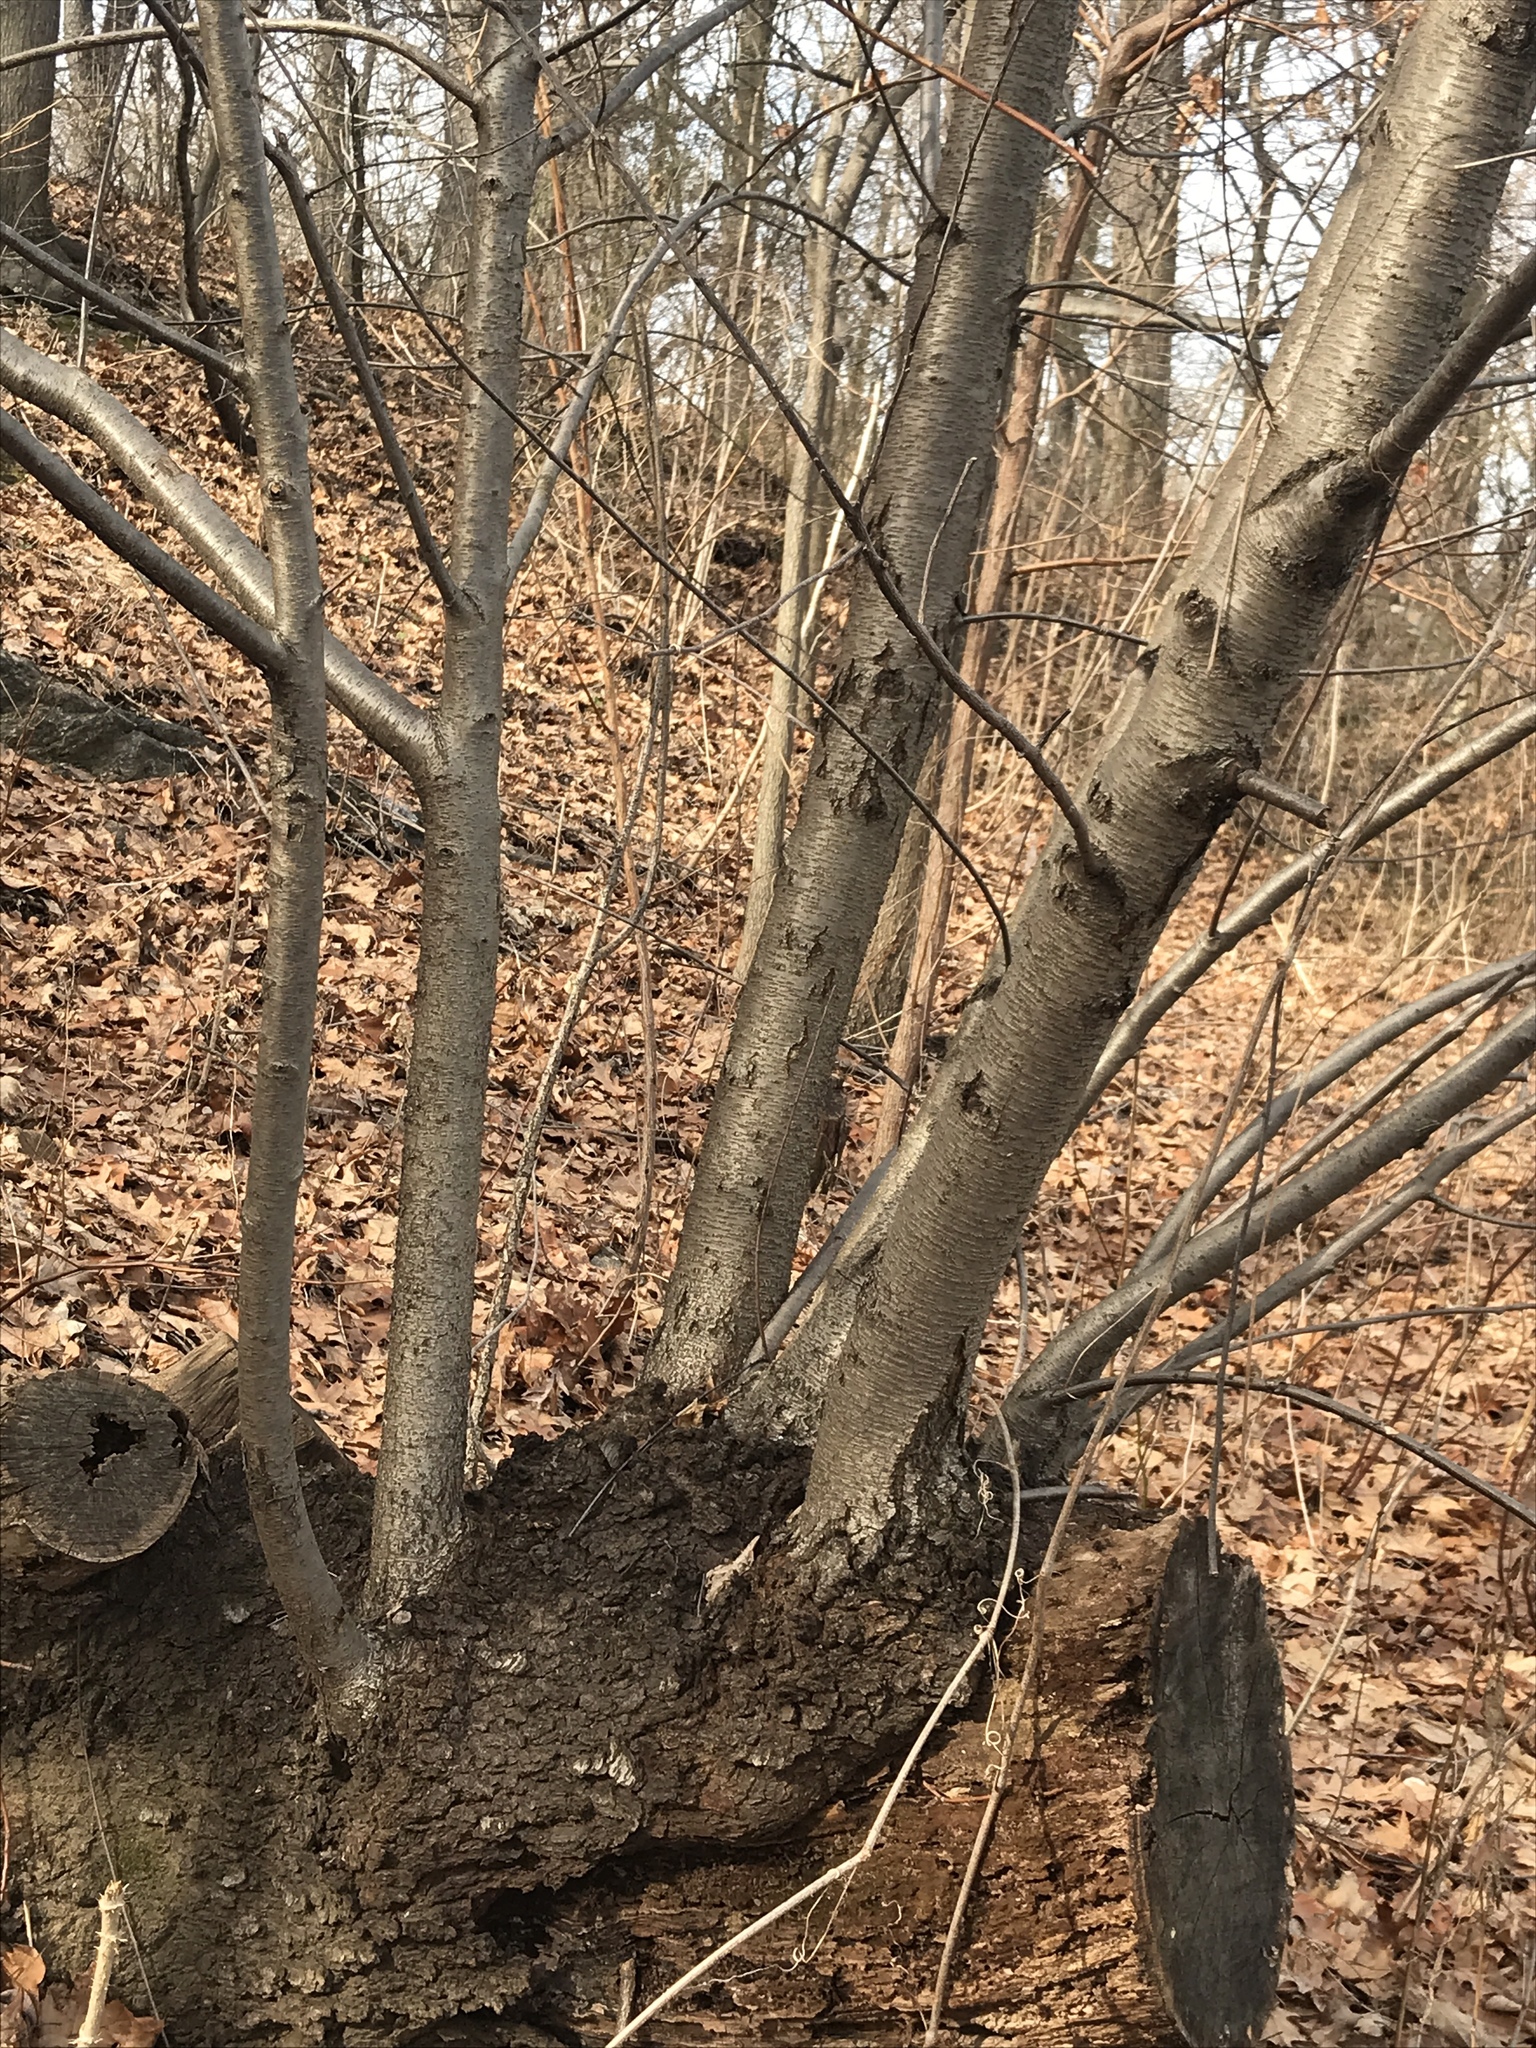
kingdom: Plantae
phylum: Tracheophyta
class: Magnoliopsida
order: Rosales
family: Rosaceae
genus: Prunus
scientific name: Prunus serotina
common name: Black cherry
